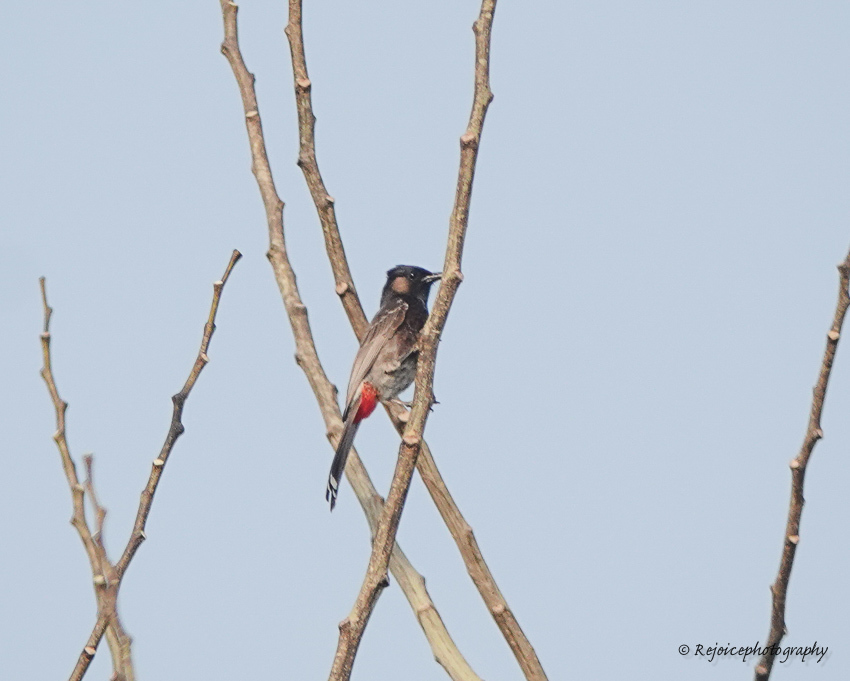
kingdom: Animalia
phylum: Chordata
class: Aves
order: Passeriformes
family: Pycnonotidae
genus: Pycnonotus
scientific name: Pycnonotus cafer
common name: Red-vented bulbul
